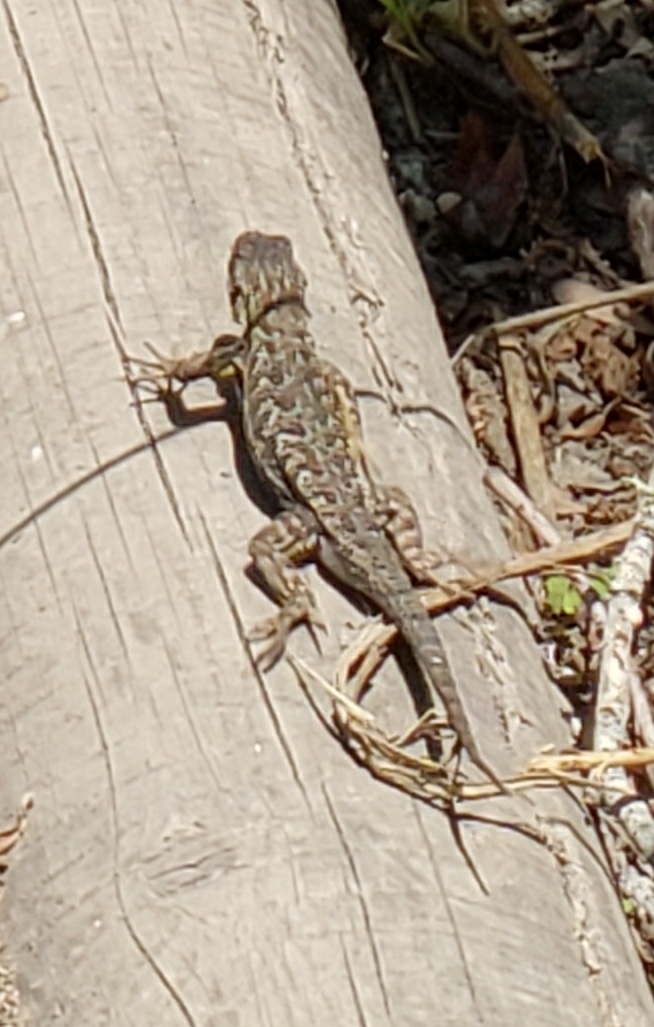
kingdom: Animalia
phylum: Chordata
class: Squamata
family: Phrynosomatidae
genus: Sceloporus
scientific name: Sceloporus occidentalis
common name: Western fence lizard
